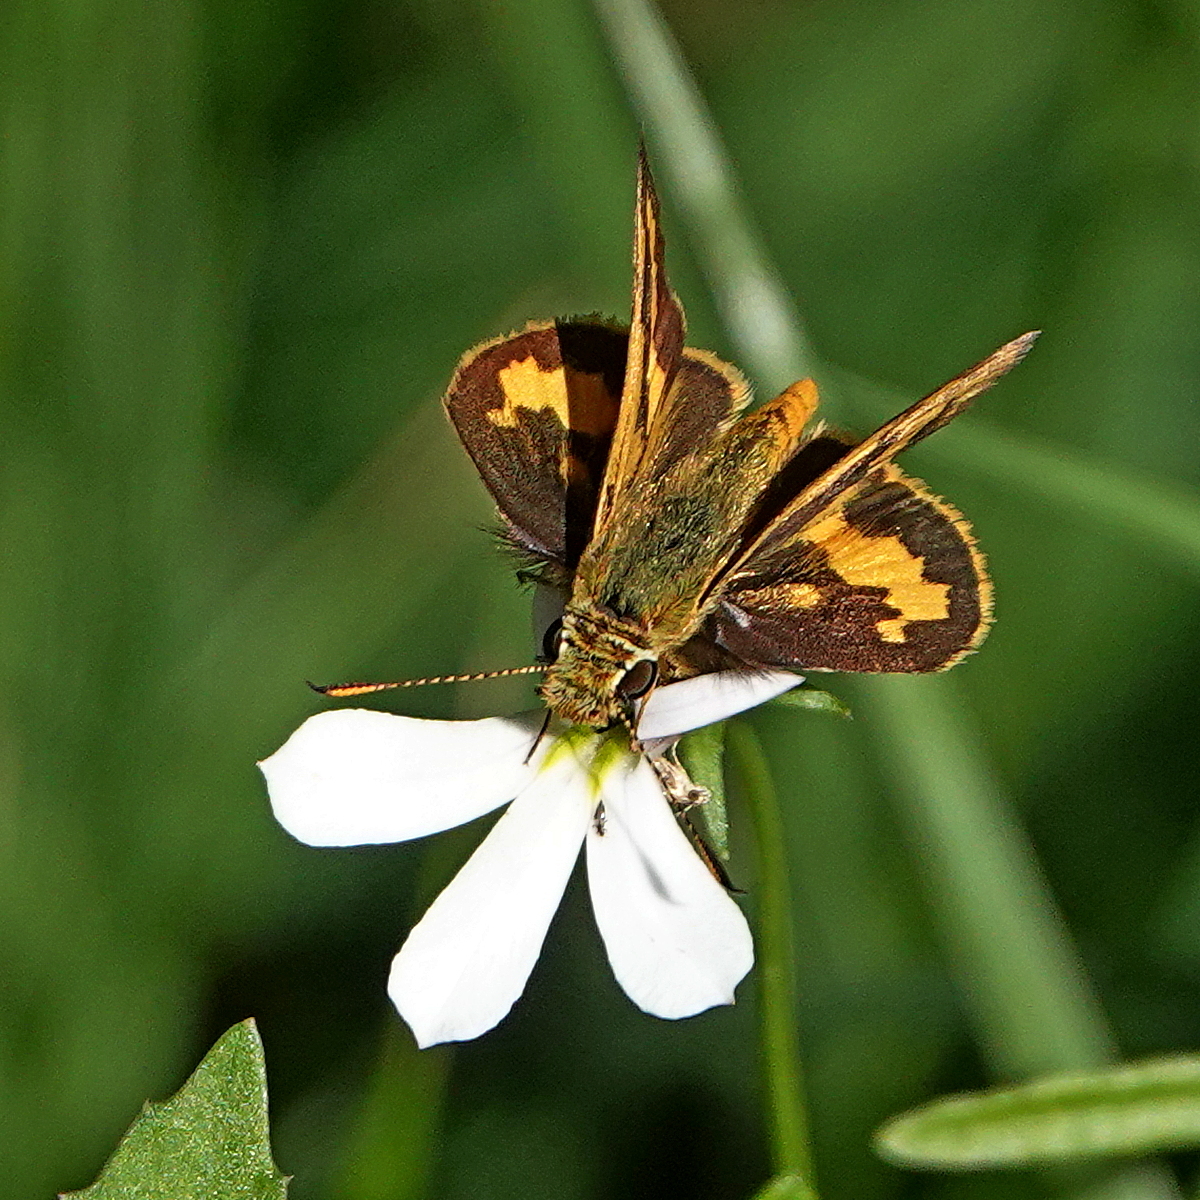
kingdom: Animalia
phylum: Arthropoda
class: Insecta
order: Lepidoptera
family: Hesperiidae
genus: Ocybadistes
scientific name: Ocybadistes walkeri
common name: Yellow-banded dart
